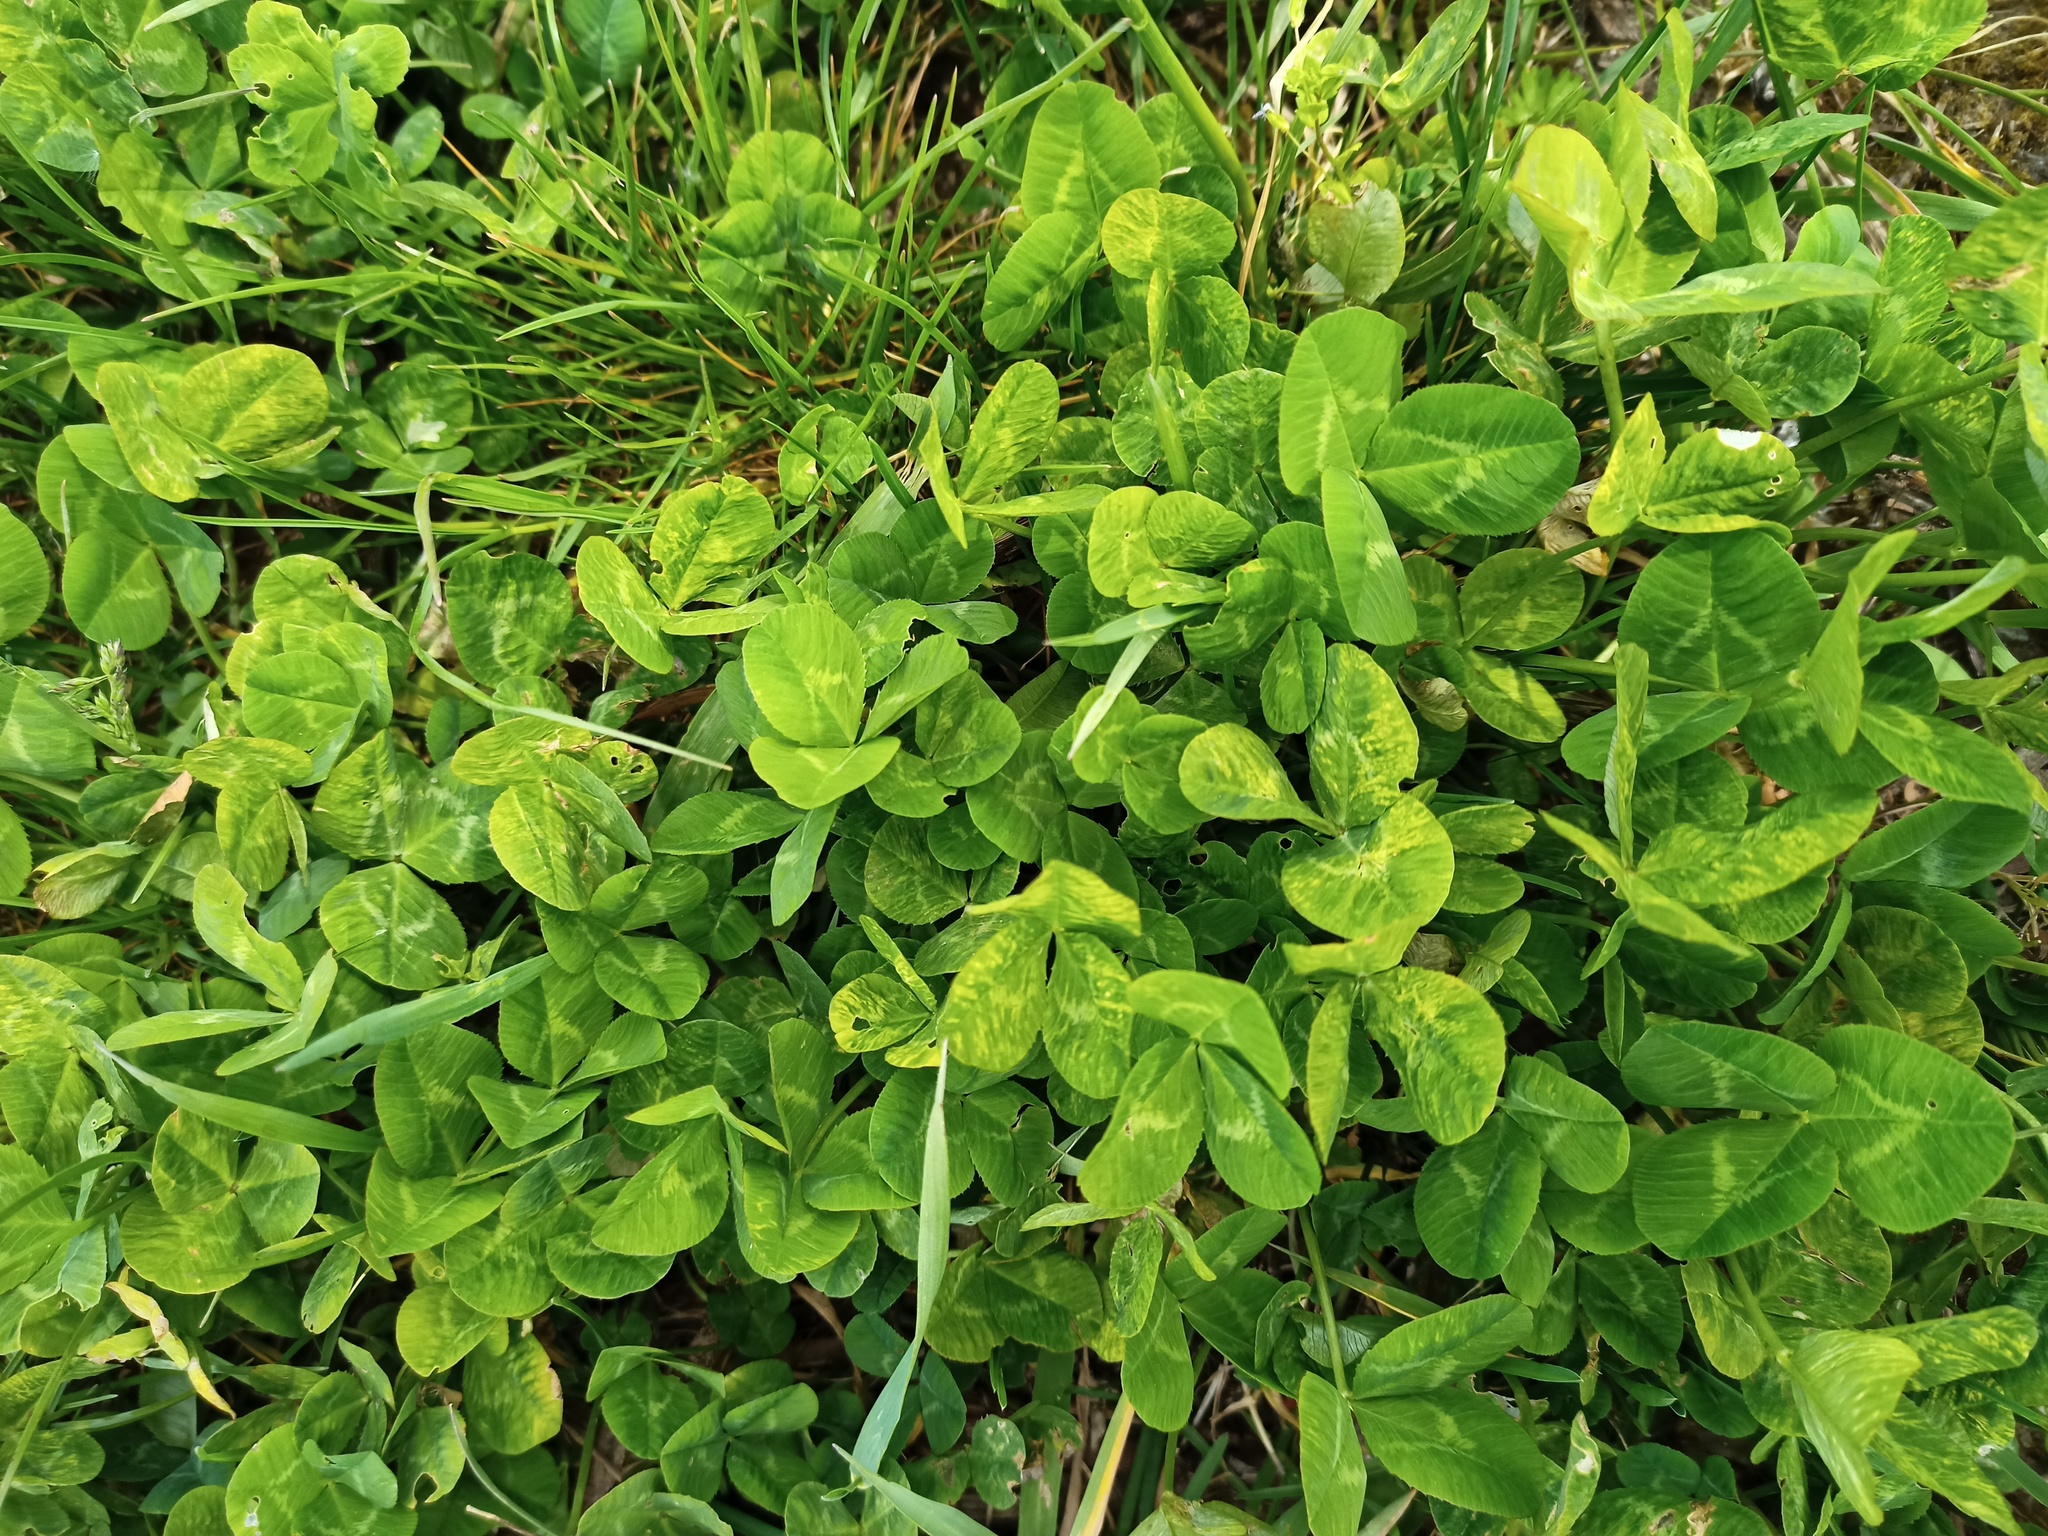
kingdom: Plantae
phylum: Tracheophyta
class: Magnoliopsida
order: Fabales
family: Fabaceae
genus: Trifolium
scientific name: Trifolium pratense
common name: Red clover
